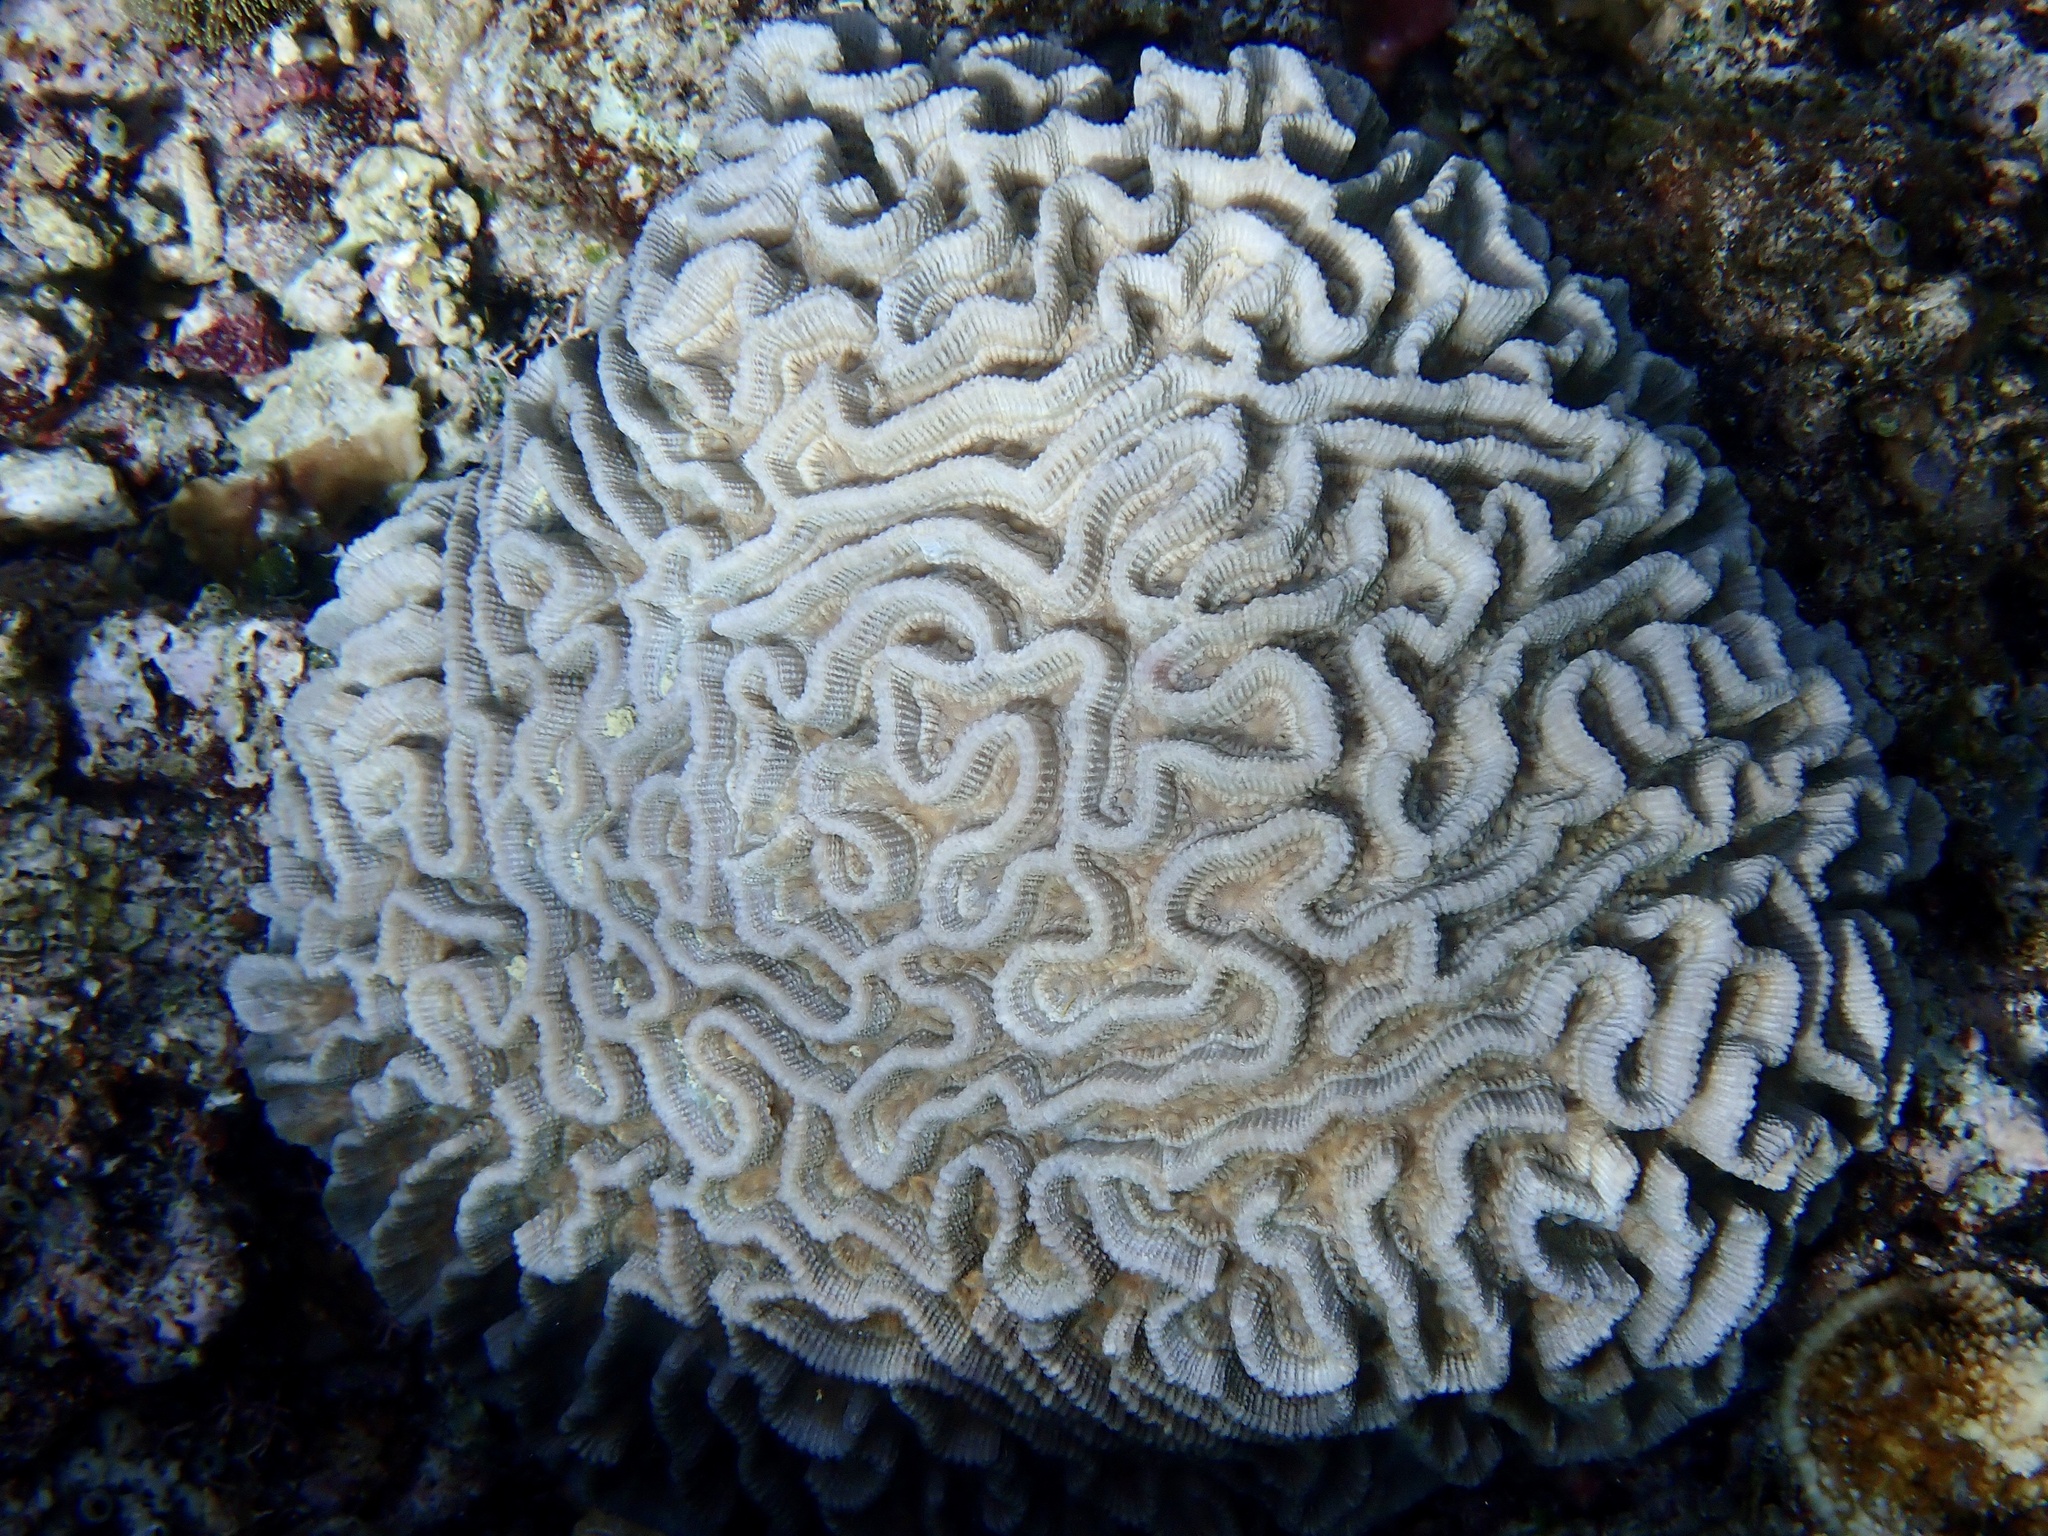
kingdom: Animalia
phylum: Cnidaria
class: Anthozoa
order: Scleractinia
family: Merulinidae
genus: Oulophyllia
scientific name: Oulophyllia crispa
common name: Intermediate valley coral
